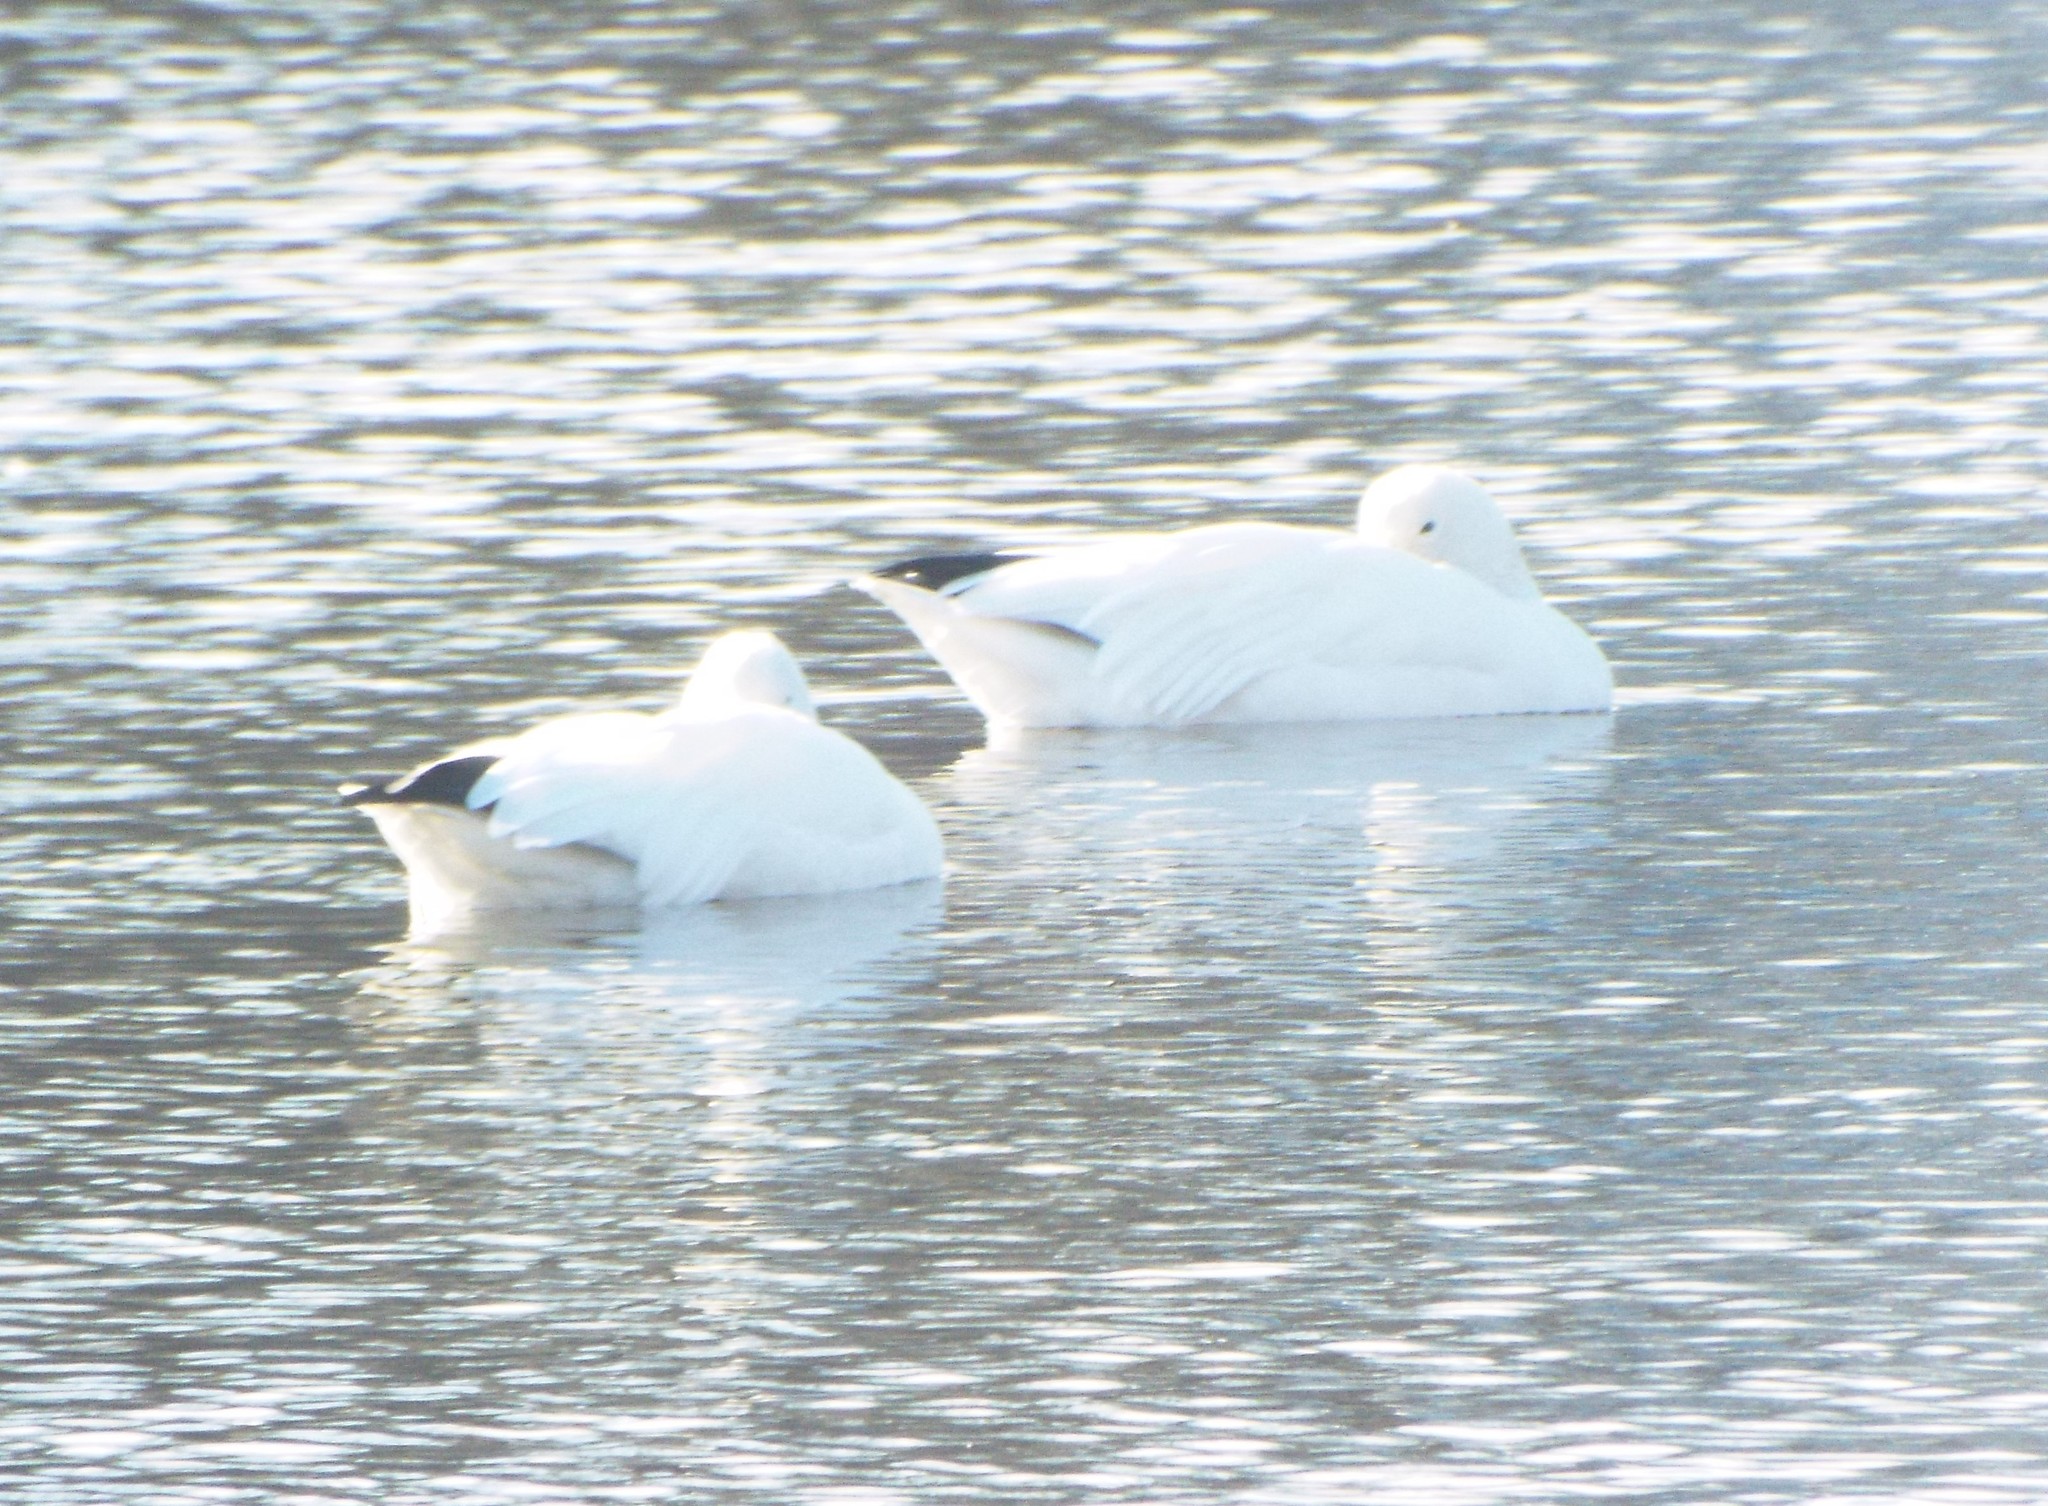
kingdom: Animalia
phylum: Chordata
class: Aves
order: Anseriformes
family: Anatidae
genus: Anser
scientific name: Anser caerulescens
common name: Snow goose
